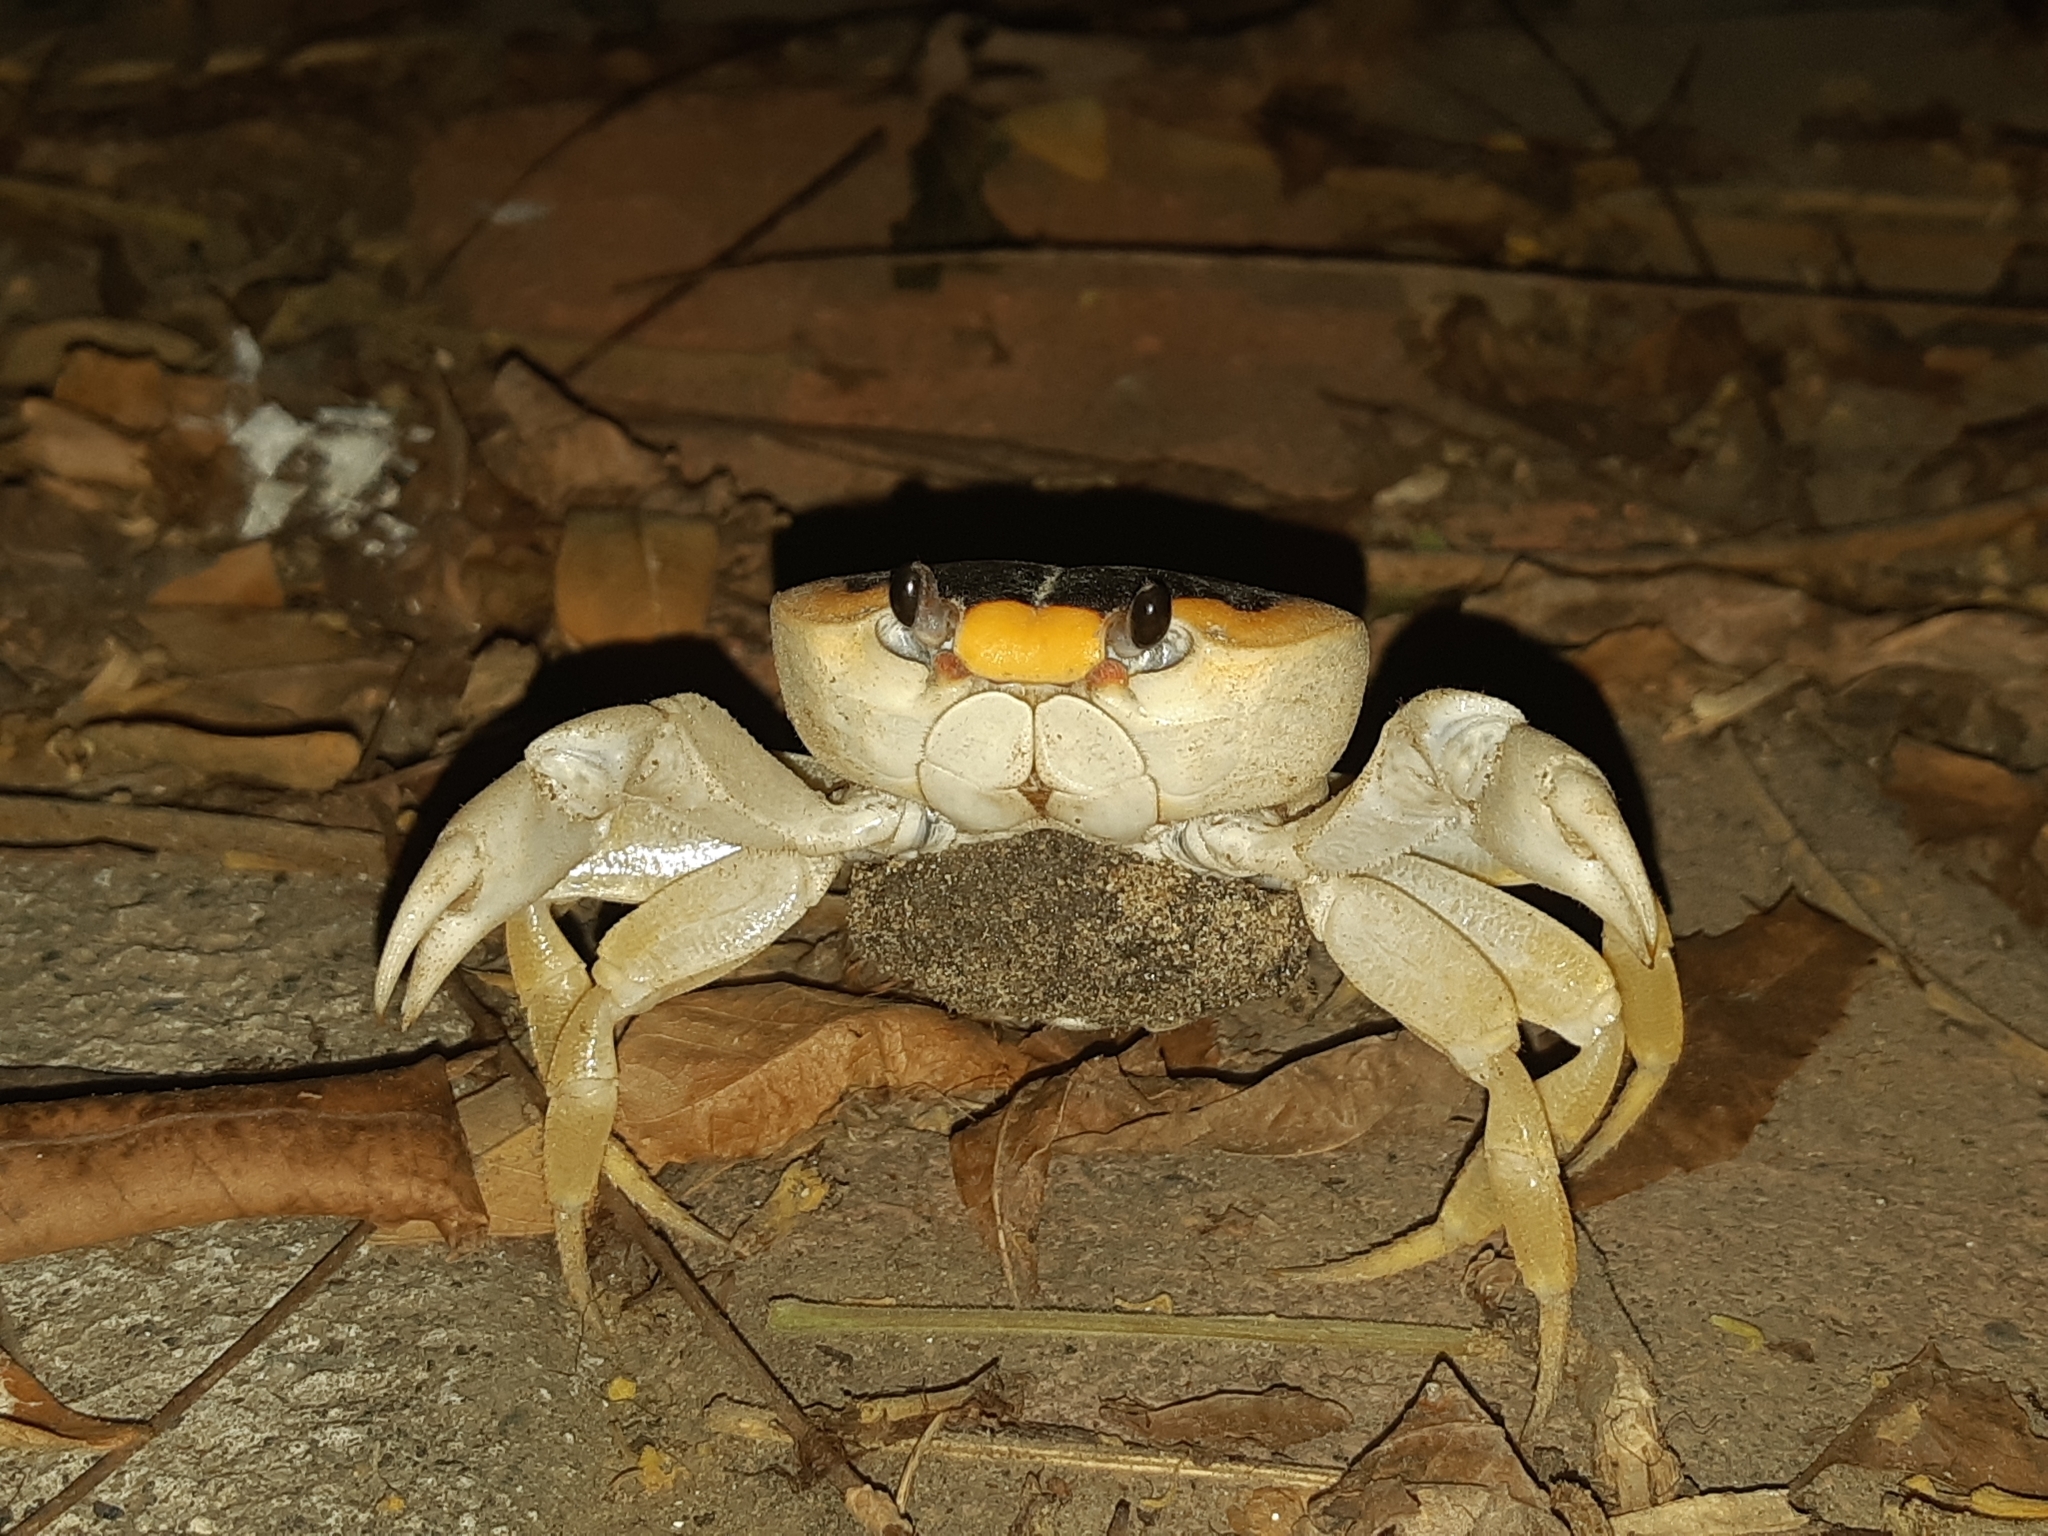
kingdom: Animalia
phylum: Arthropoda
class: Malacostraca
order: Decapoda
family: Gecarcinidae
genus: Gecarcinus
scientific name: Gecarcinus nobilii
